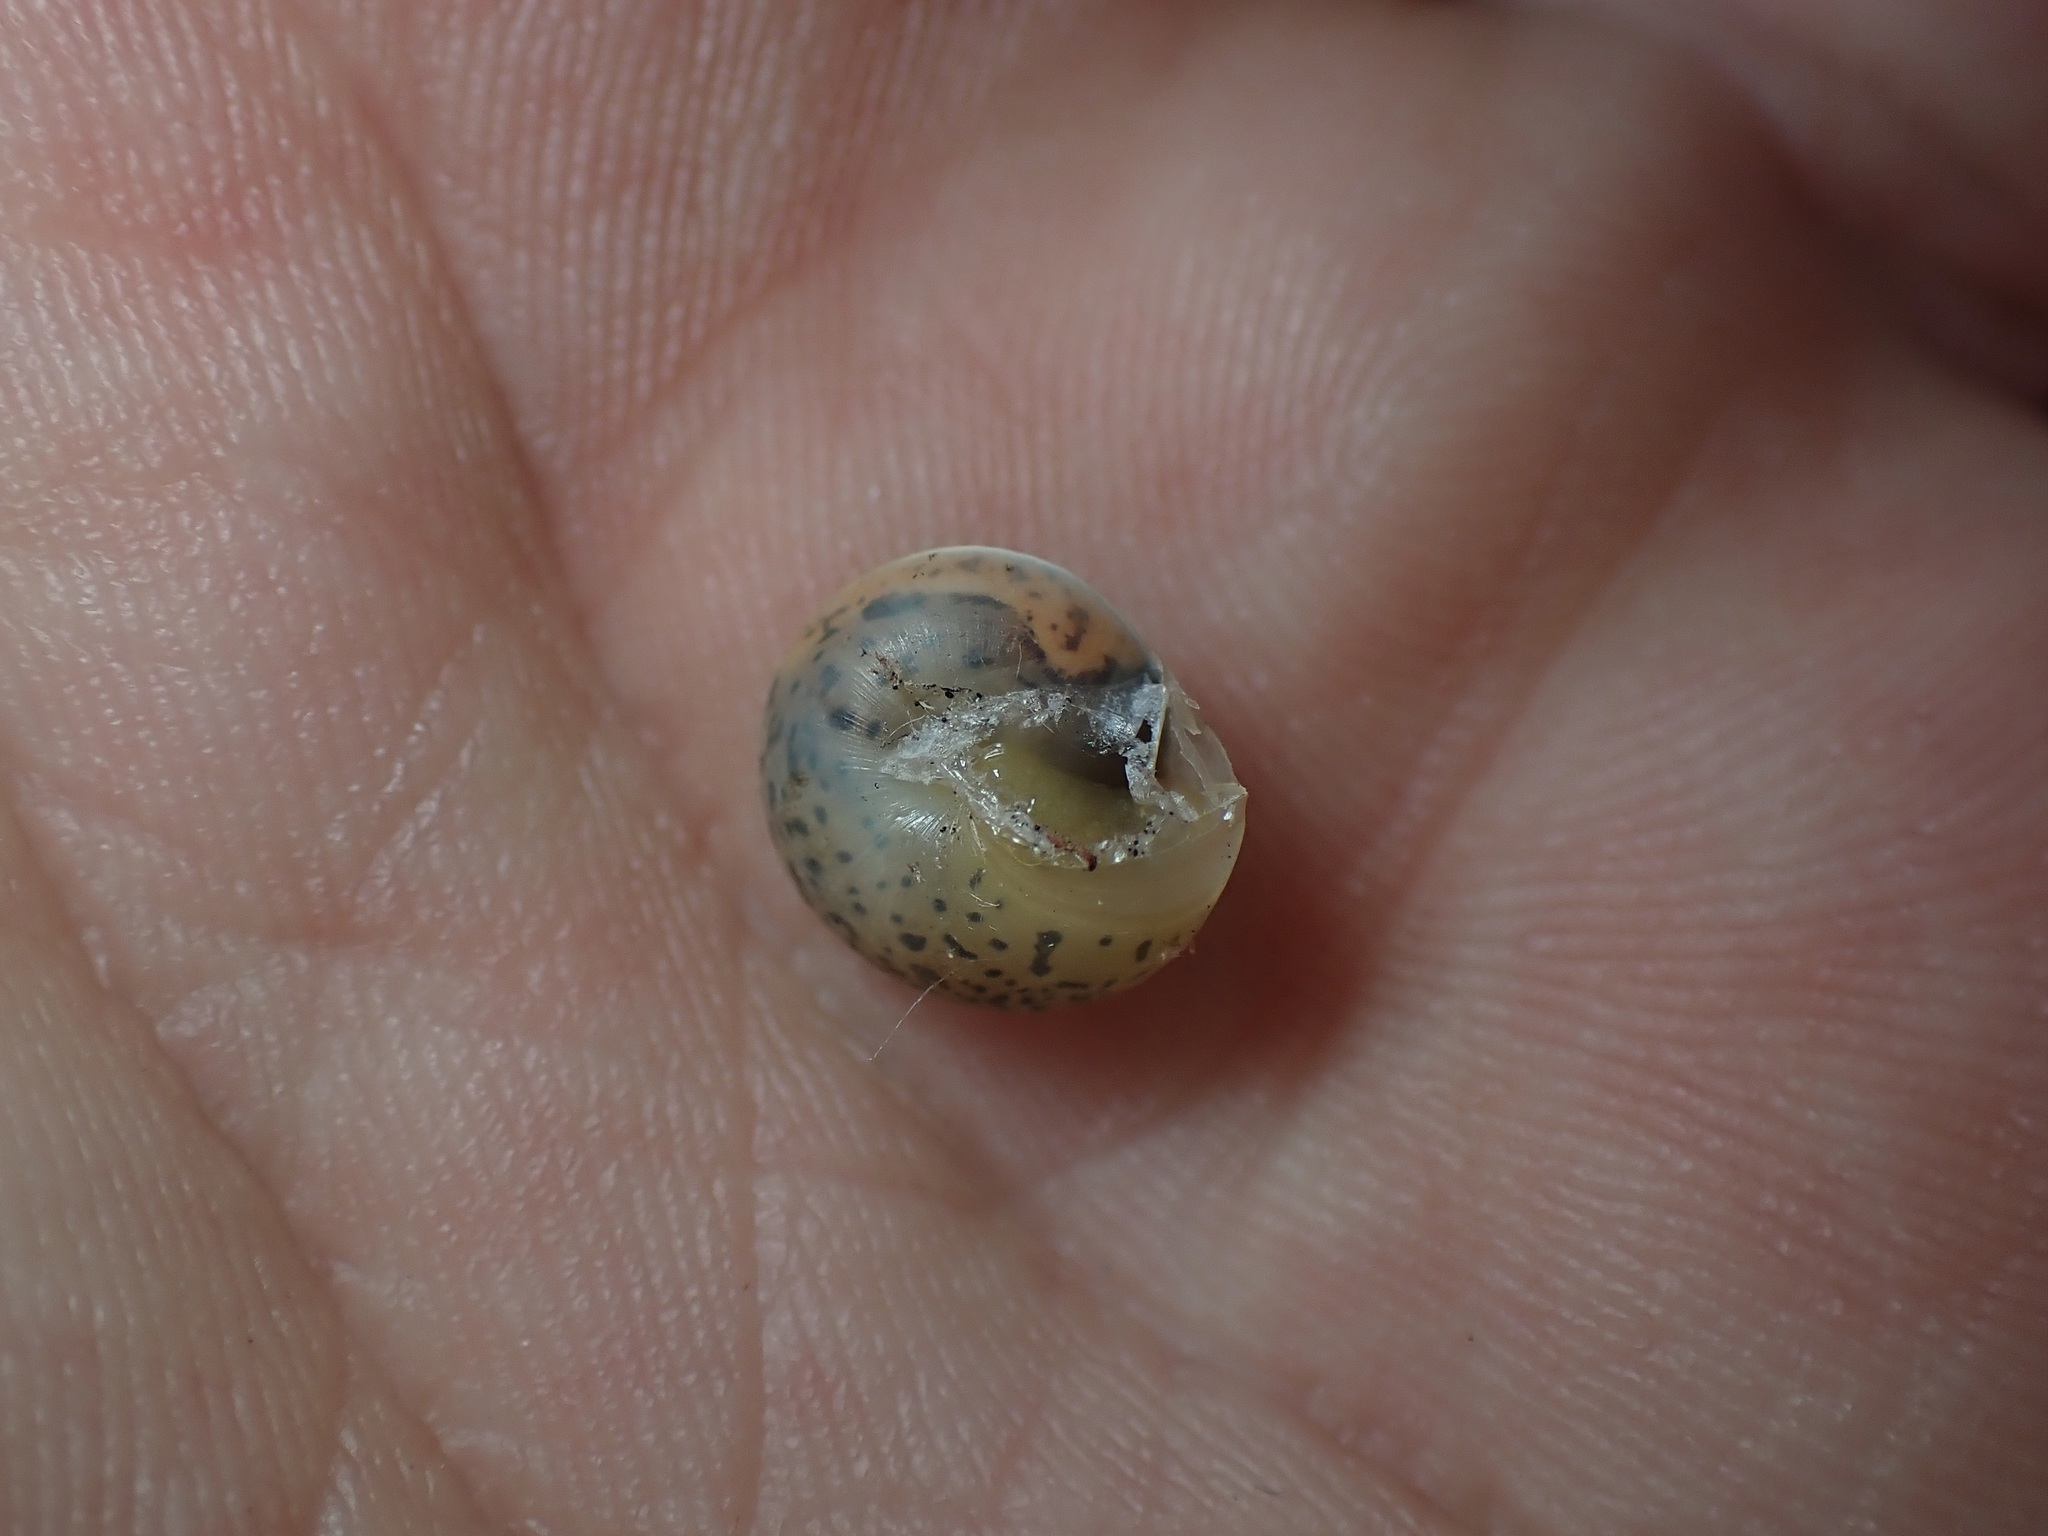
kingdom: Animalia
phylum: Mollusca
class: Gastropoda
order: Stylommatophora
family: Hygromiidae
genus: Hygromia
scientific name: Hygromia cinctella
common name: Girdled snail
